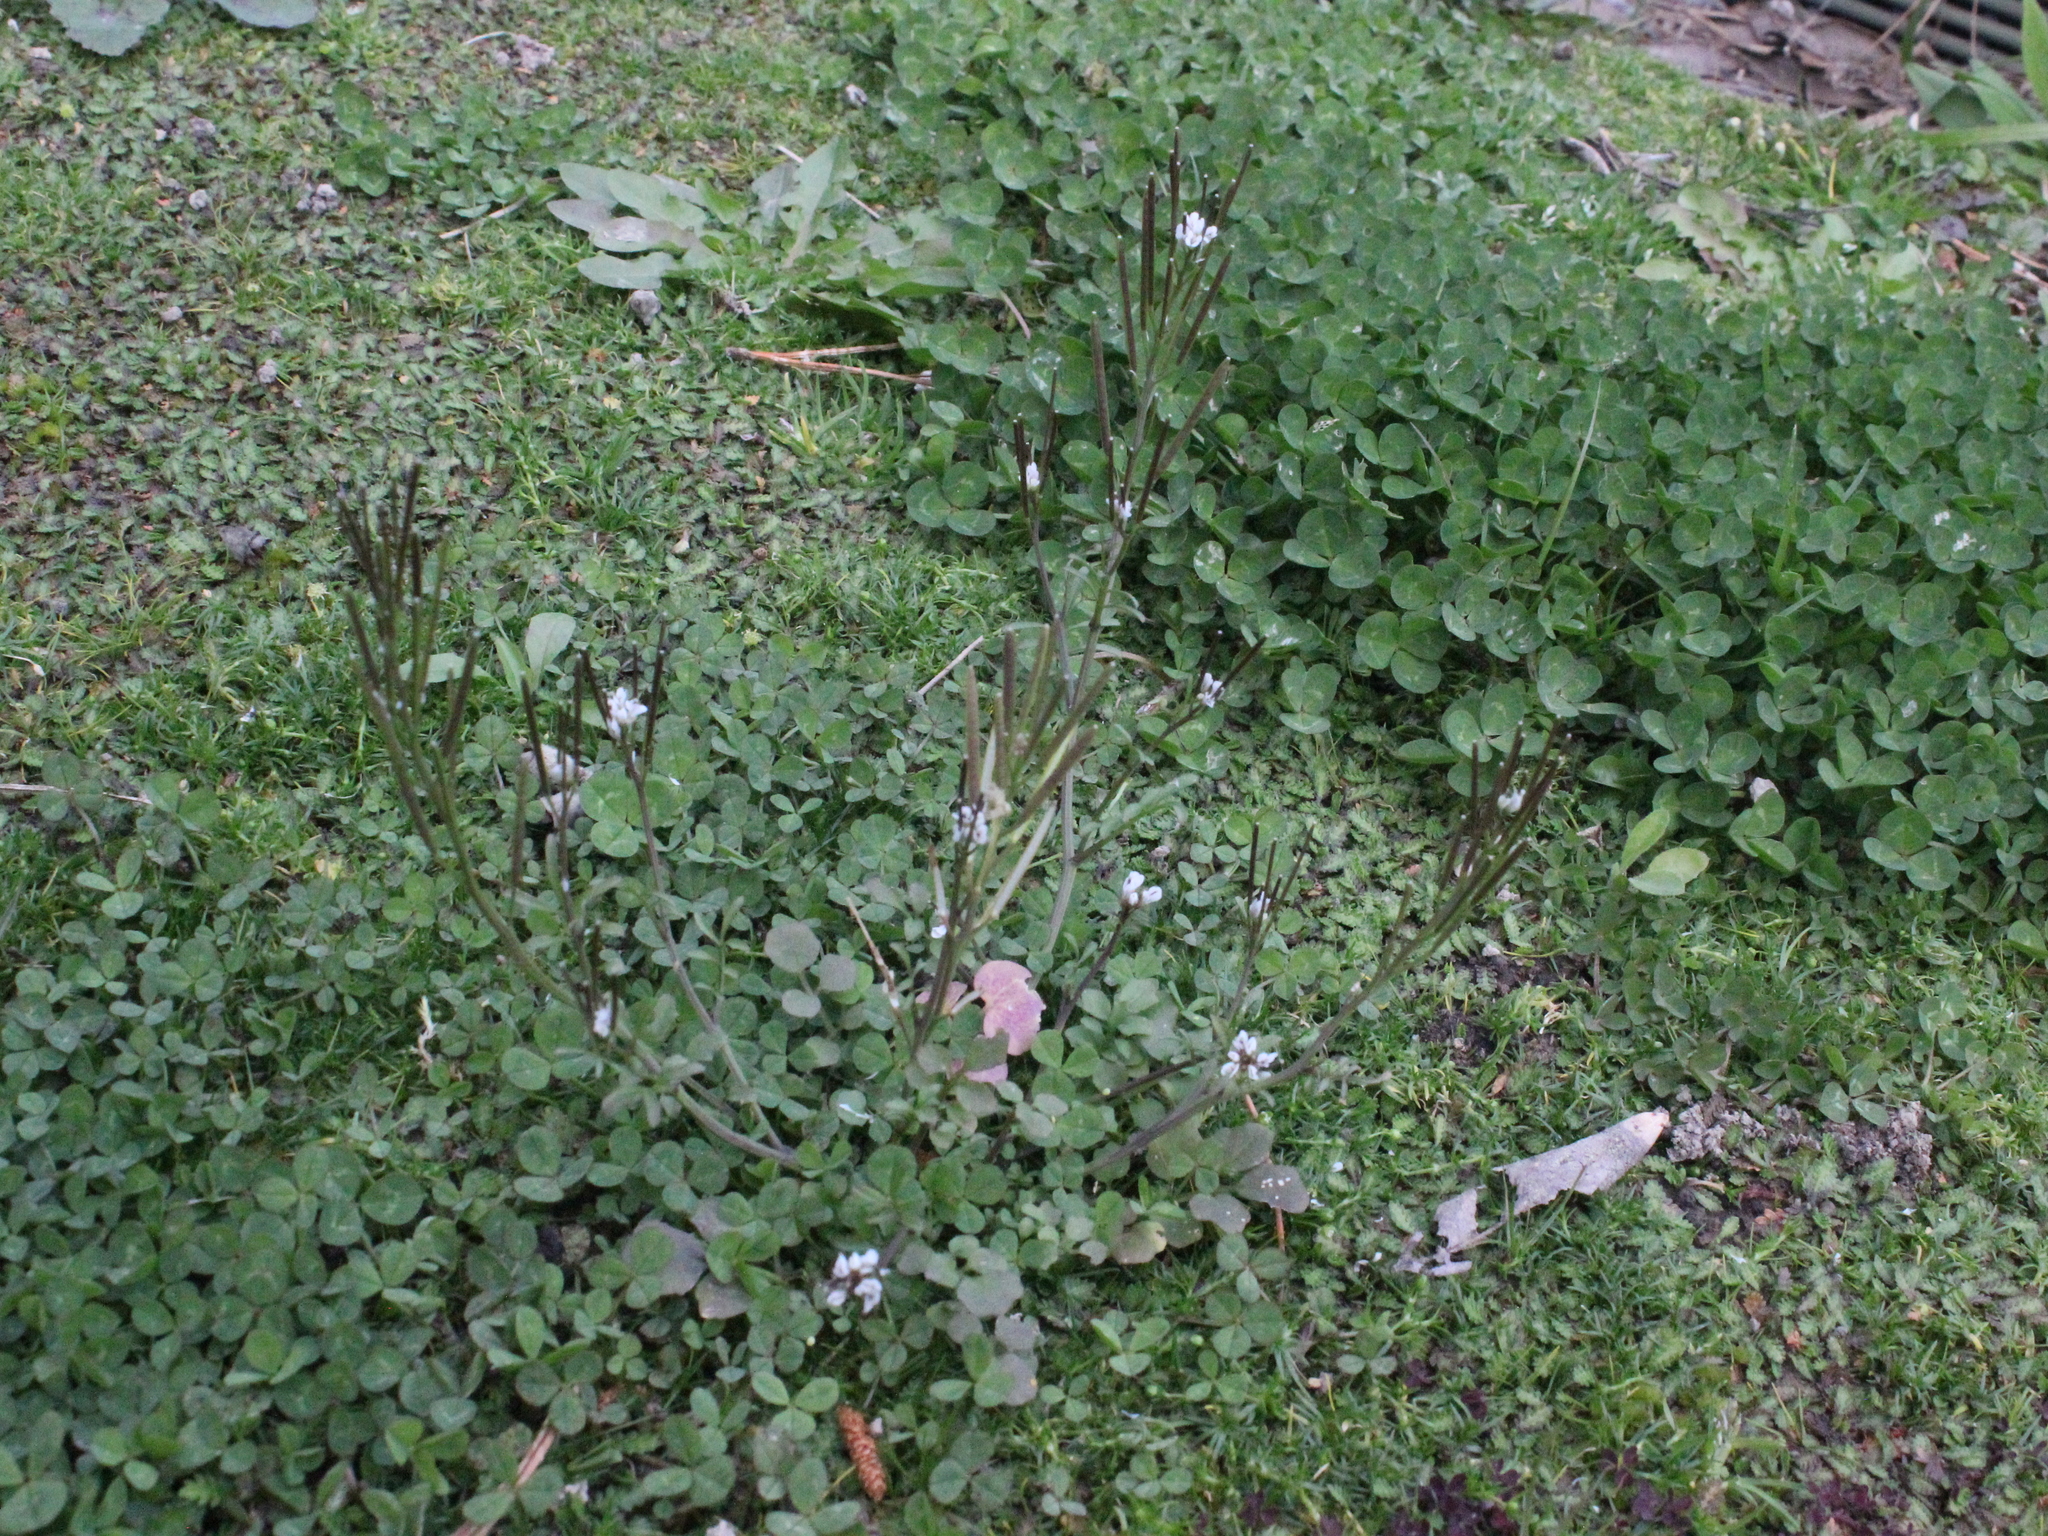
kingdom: Plantae
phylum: Tracheophyta
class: Magnoliopsida
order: Brassicales
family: Brassicaceae
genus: Cardamine
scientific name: Cardamine hirsuta
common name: Hairy bittercress
